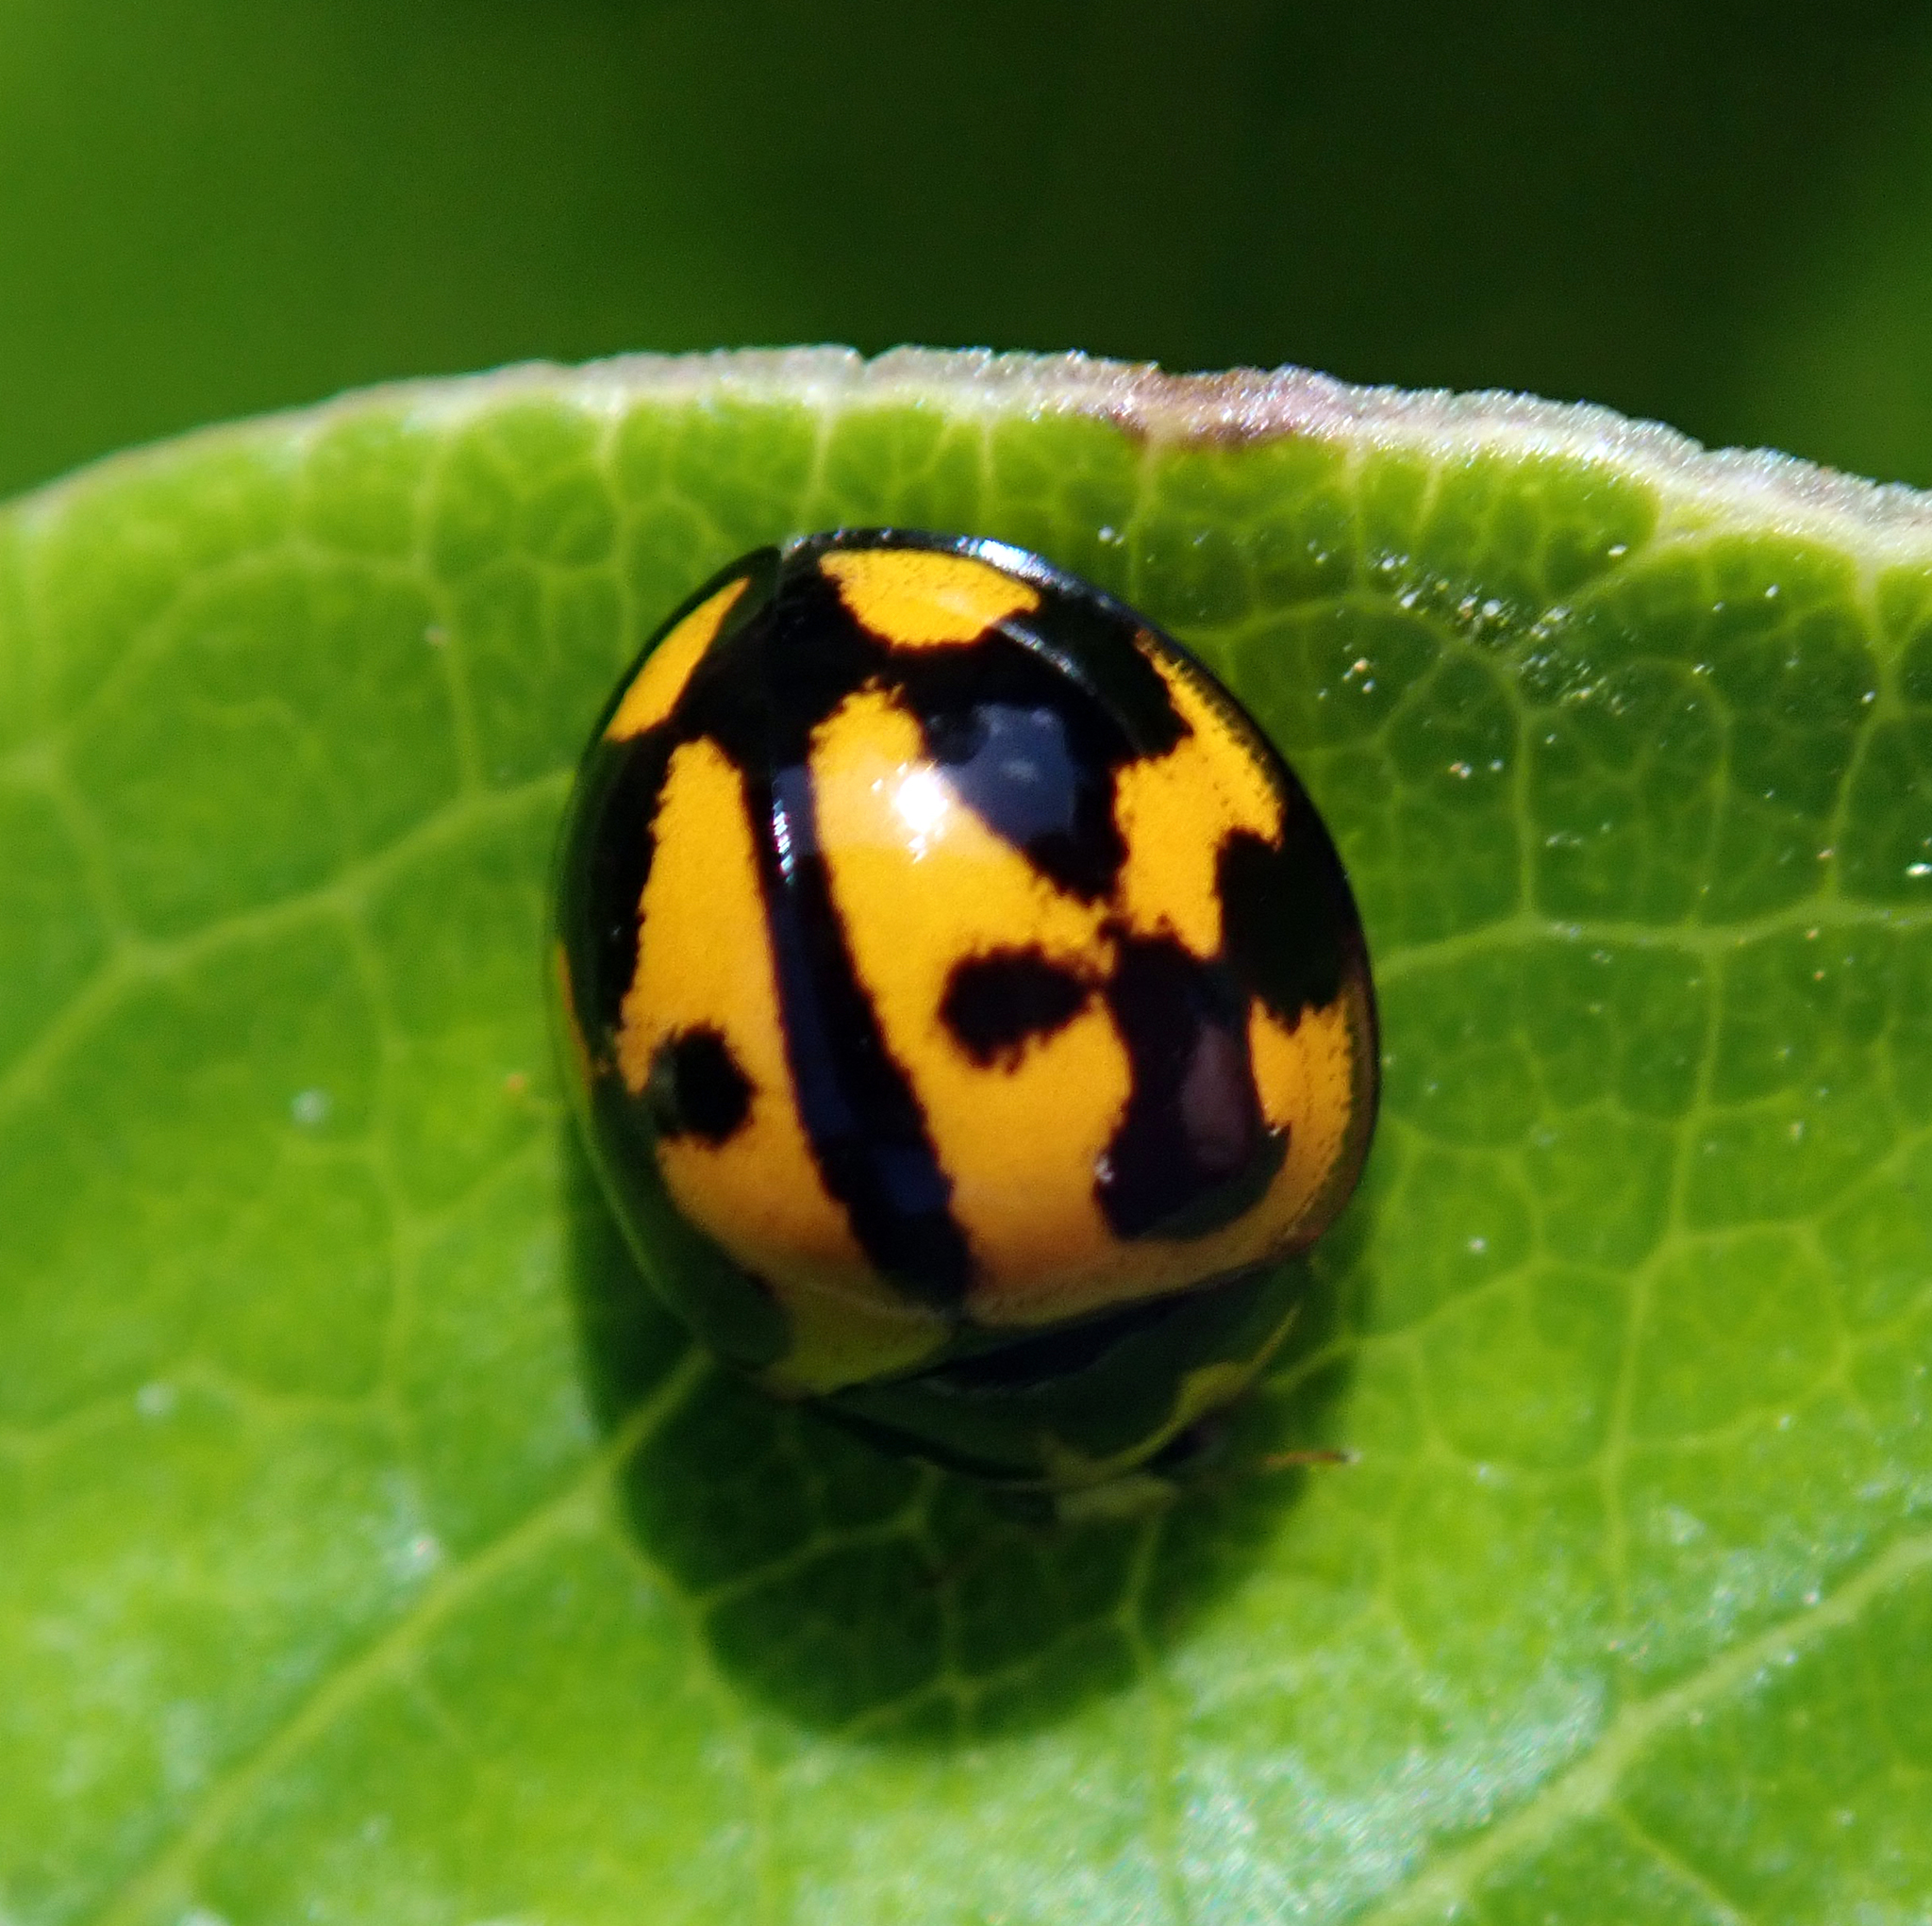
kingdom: Animalia
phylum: Arthropoda
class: Insecta
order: Coleoptera
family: Coccinellidae
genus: Coelophora
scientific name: Coelophora inaequalis
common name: Common australian lady beetle
